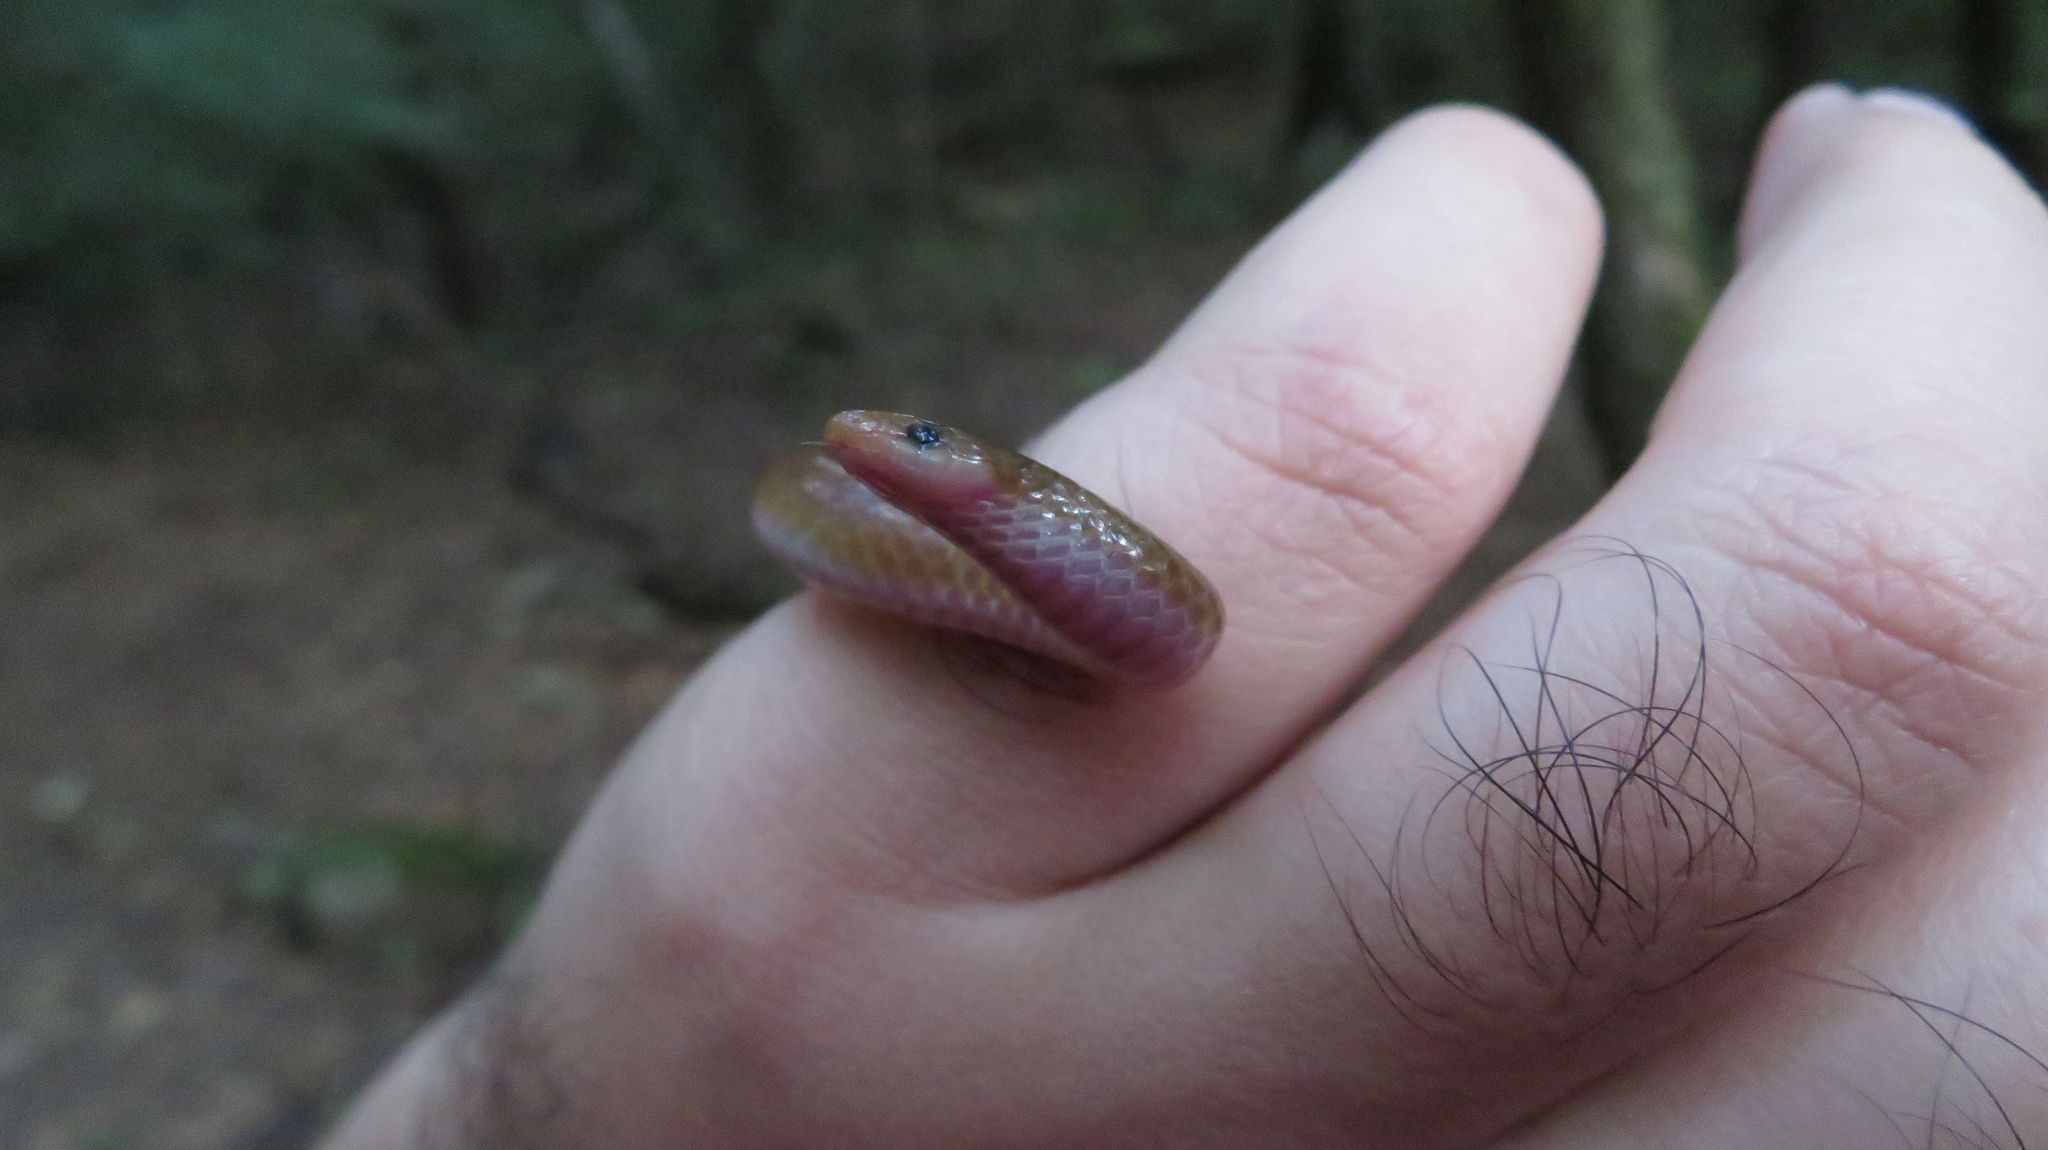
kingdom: Animalia
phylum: Chordata
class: Squamata
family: Colubridae
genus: Carphophis
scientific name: Carphophis amoenus
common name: Eastern worm snake
